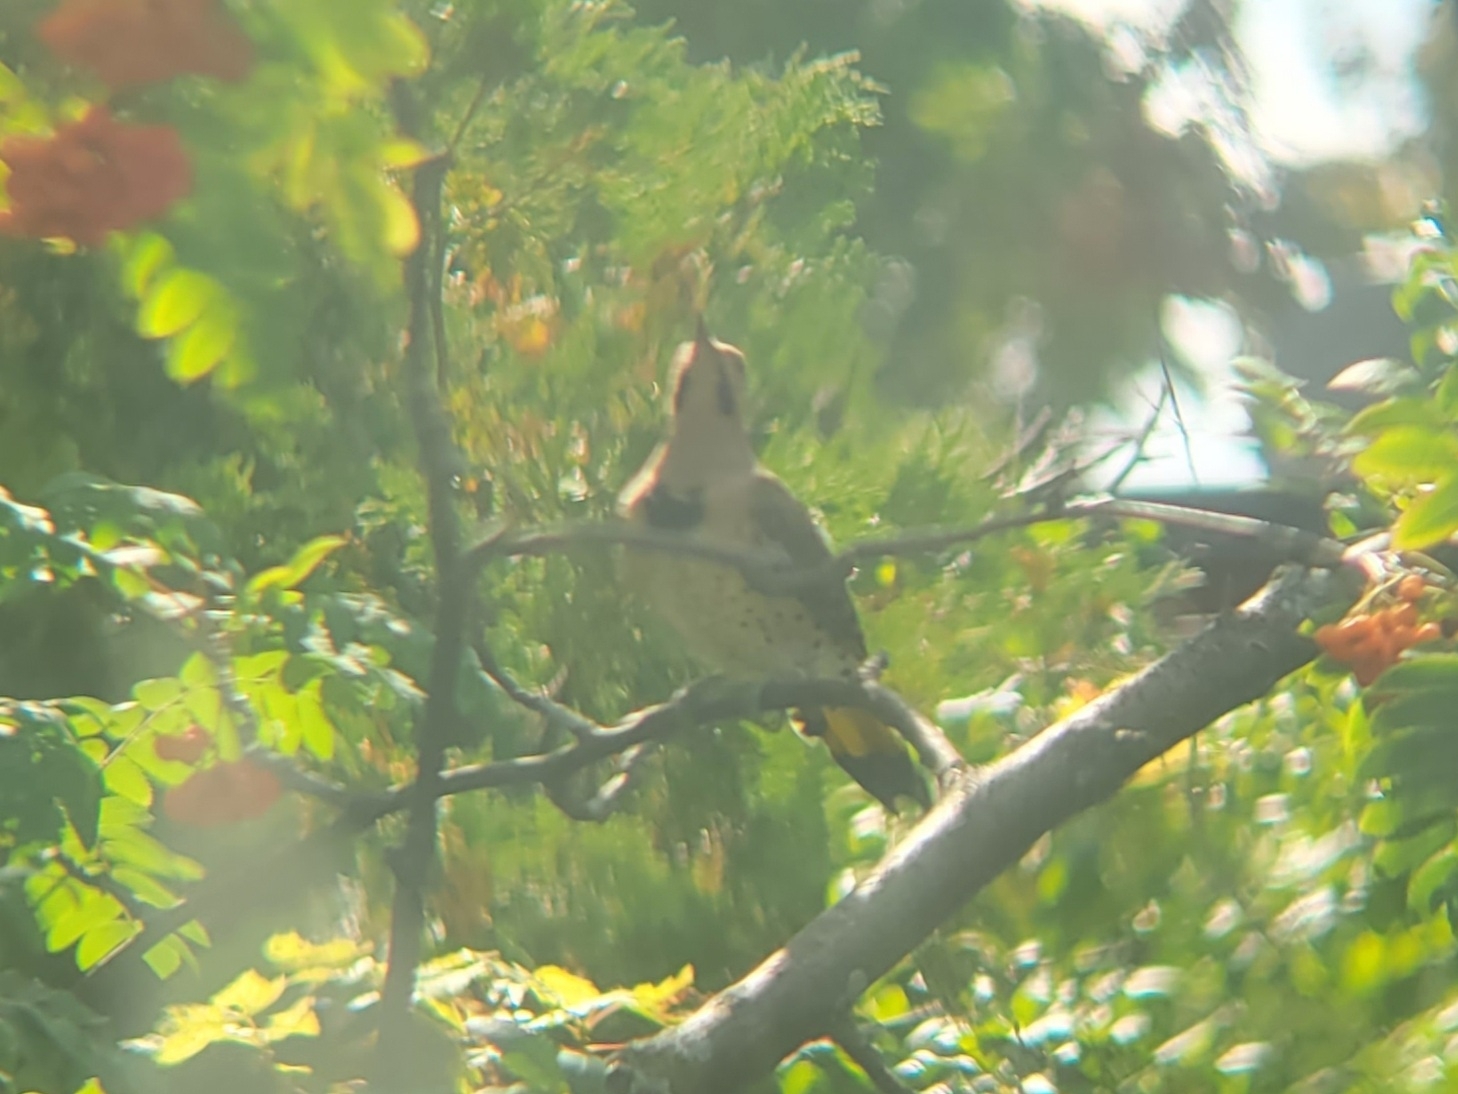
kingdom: Animalia
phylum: Chordata
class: Aves
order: Piciformes
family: Picidae
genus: Colaptes
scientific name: Colaptes auratus
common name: Northern flicker
